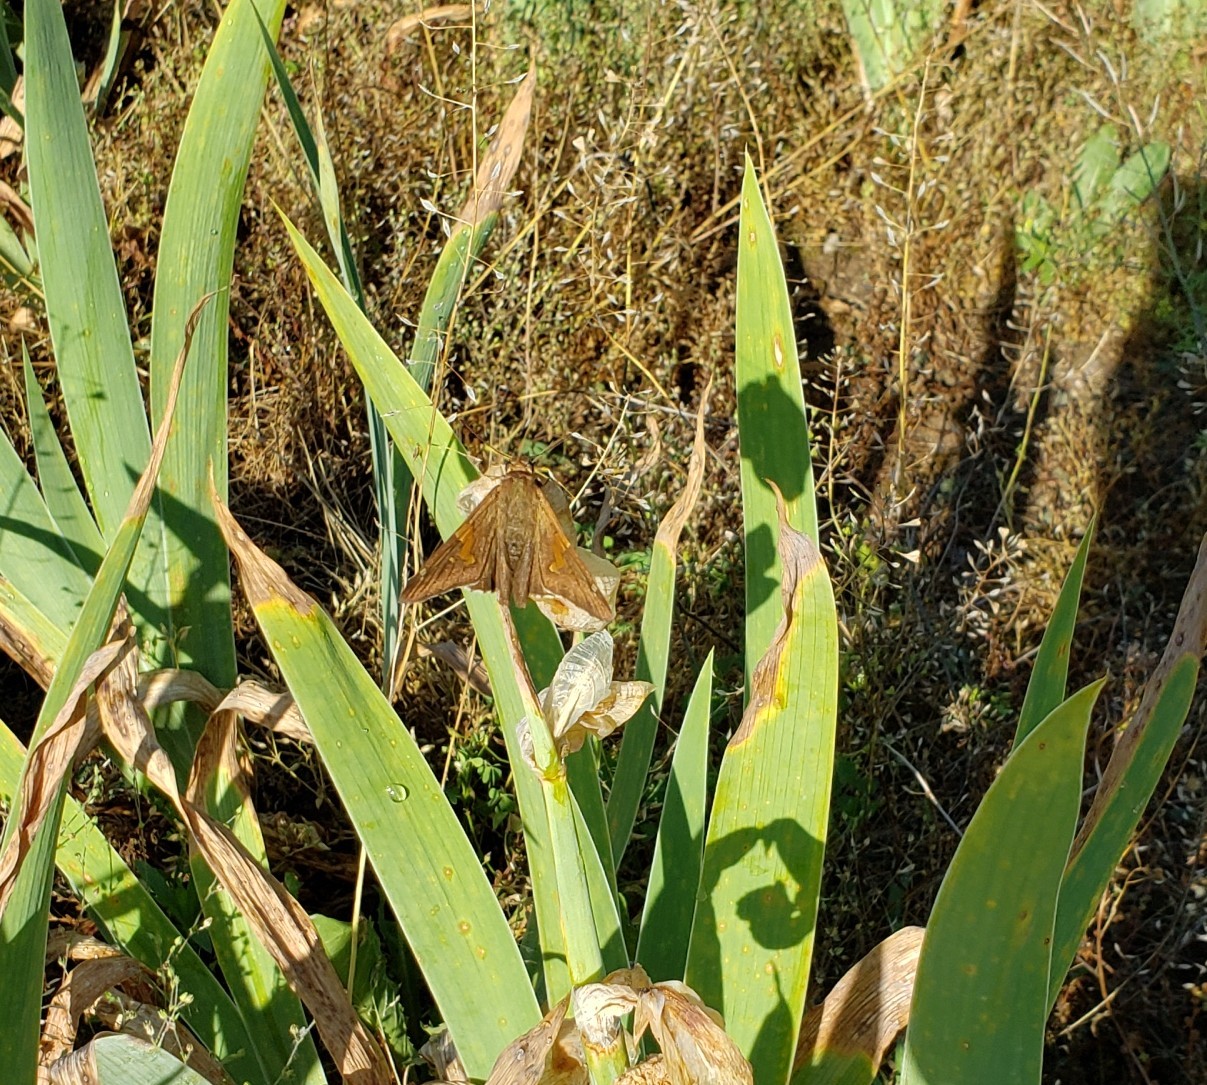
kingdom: Animalia
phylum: Arthropoda
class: Insecta
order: Lepidoptera
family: Hesperiidae
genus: Epargyreus
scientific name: Epargyreus clarus
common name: Silver-spotted skipper
